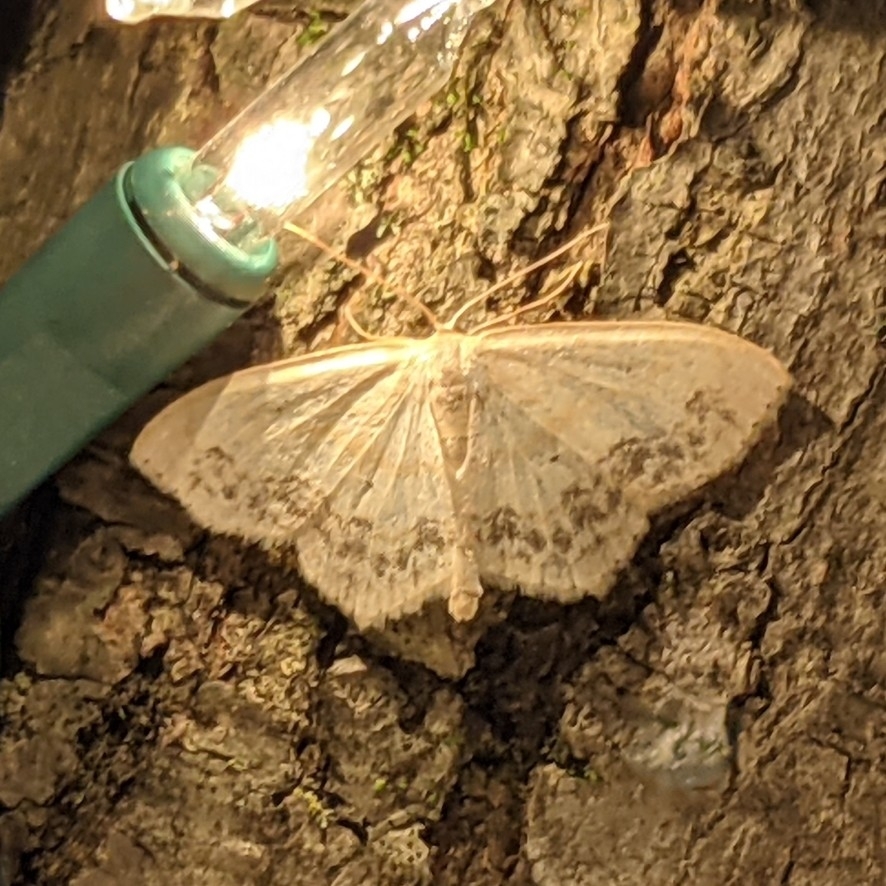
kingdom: Animalia
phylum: Arthropoda
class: Insecta
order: Lepidoptera
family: Geometridae
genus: Scopula
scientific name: Scopula limboundata
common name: Large lace border
